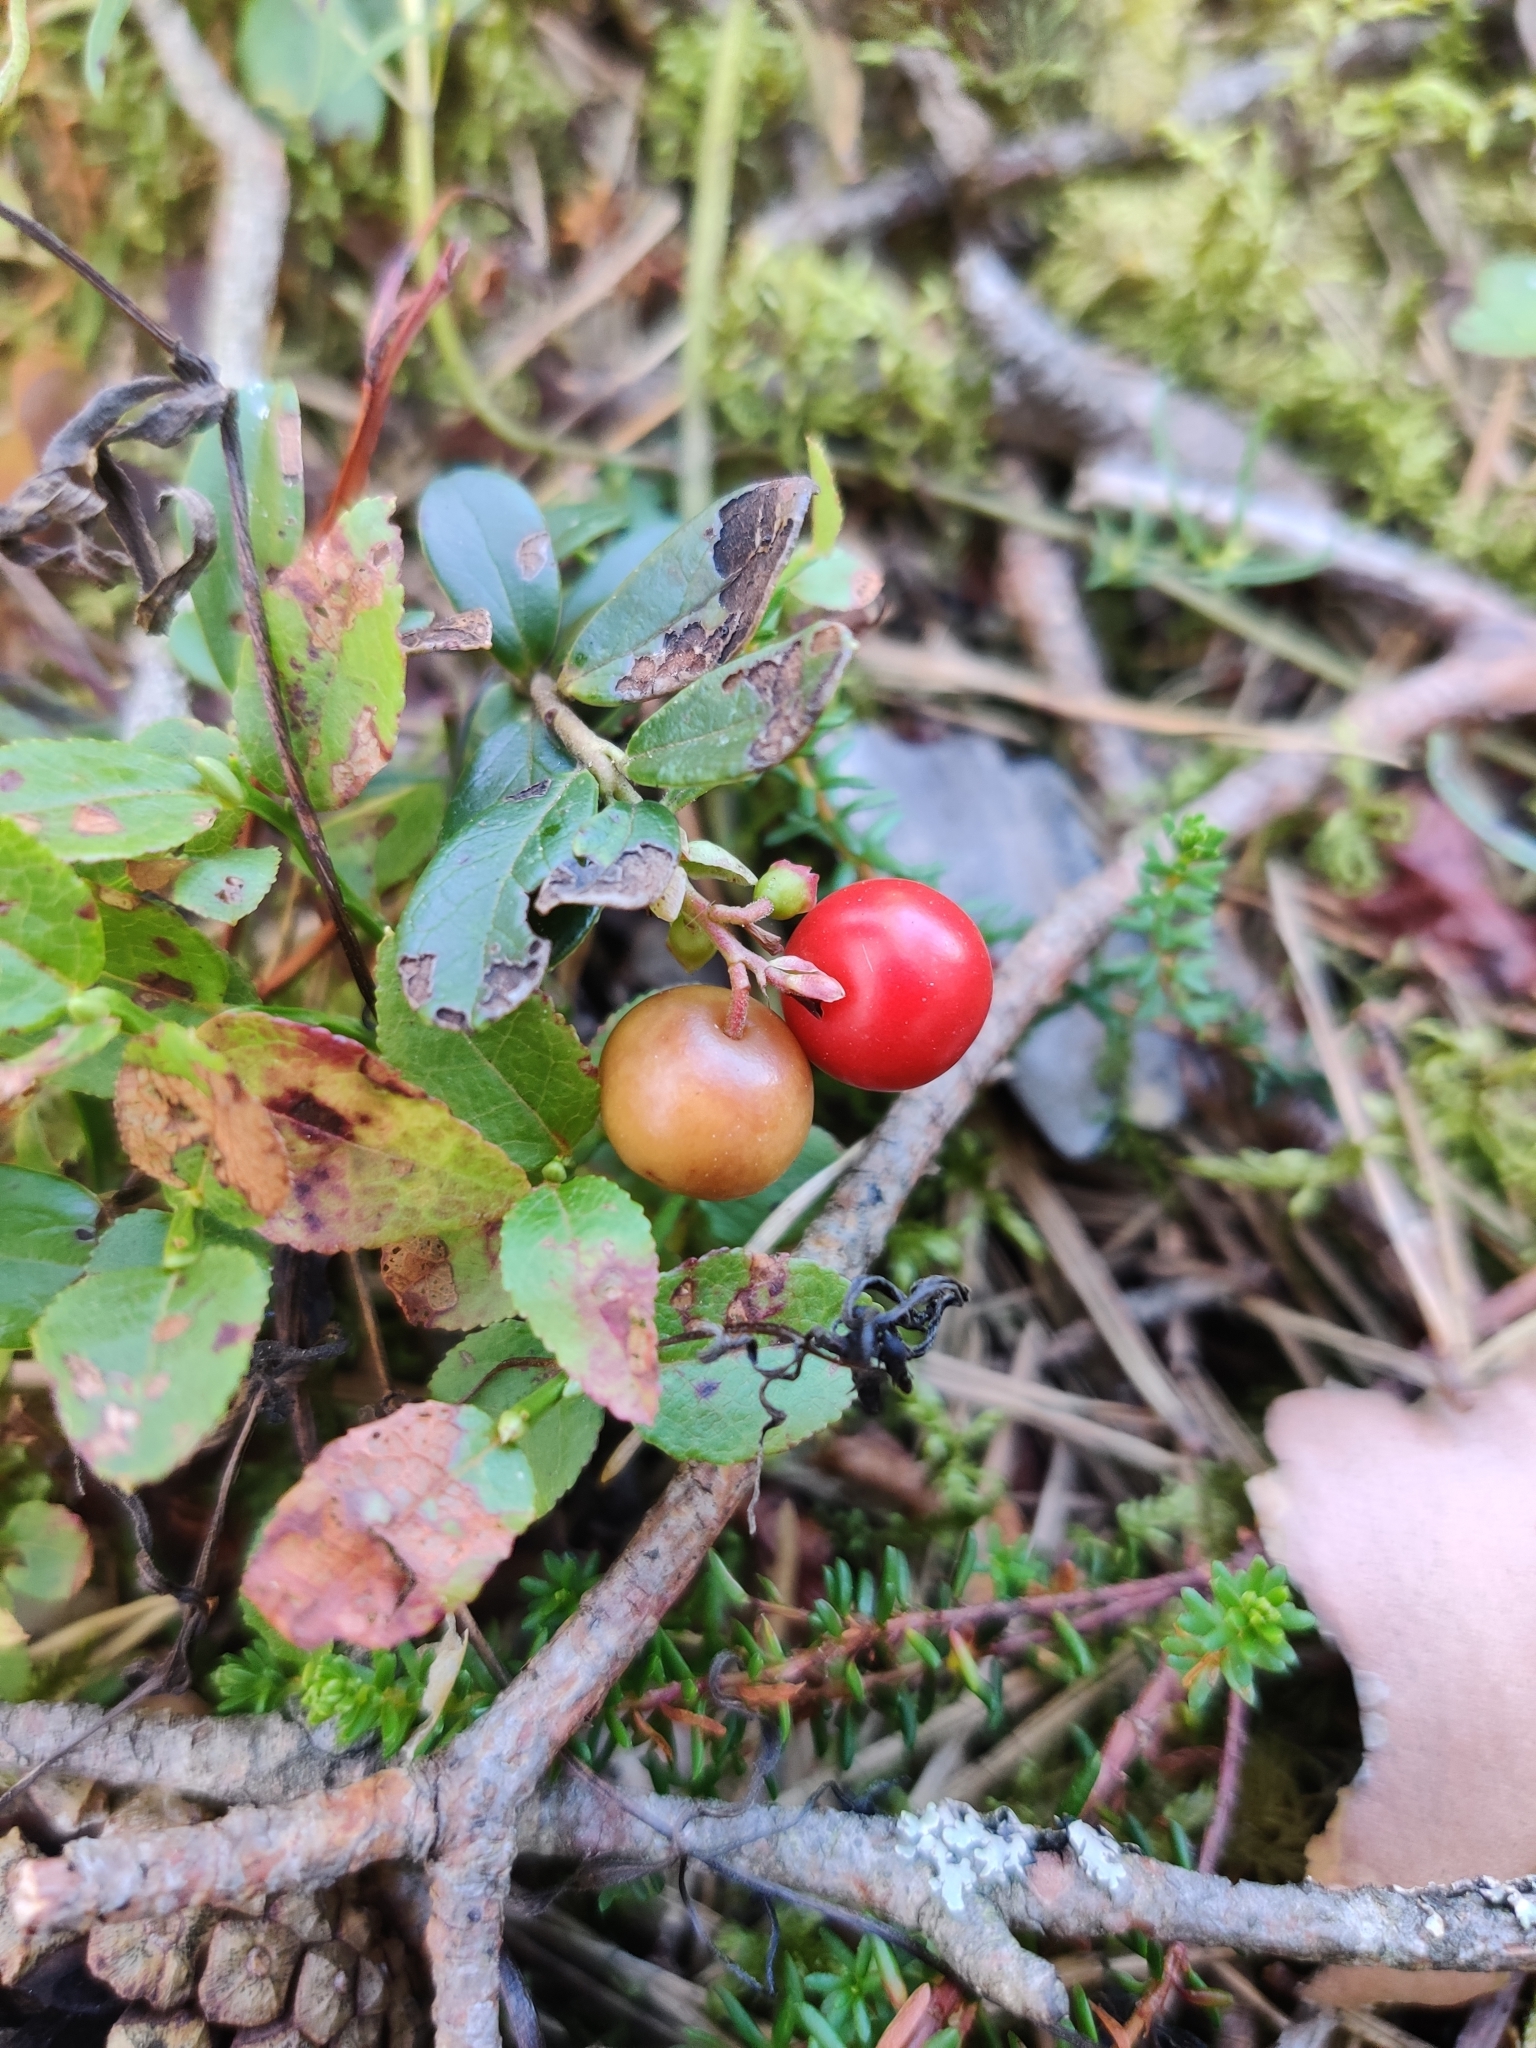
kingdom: Plantae
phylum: Tracheophyta
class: Magnoliopsida
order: Ericales
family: Ericaceae
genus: Vaccinium
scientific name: Vaccinium vitis-idaea
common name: Cowberry
